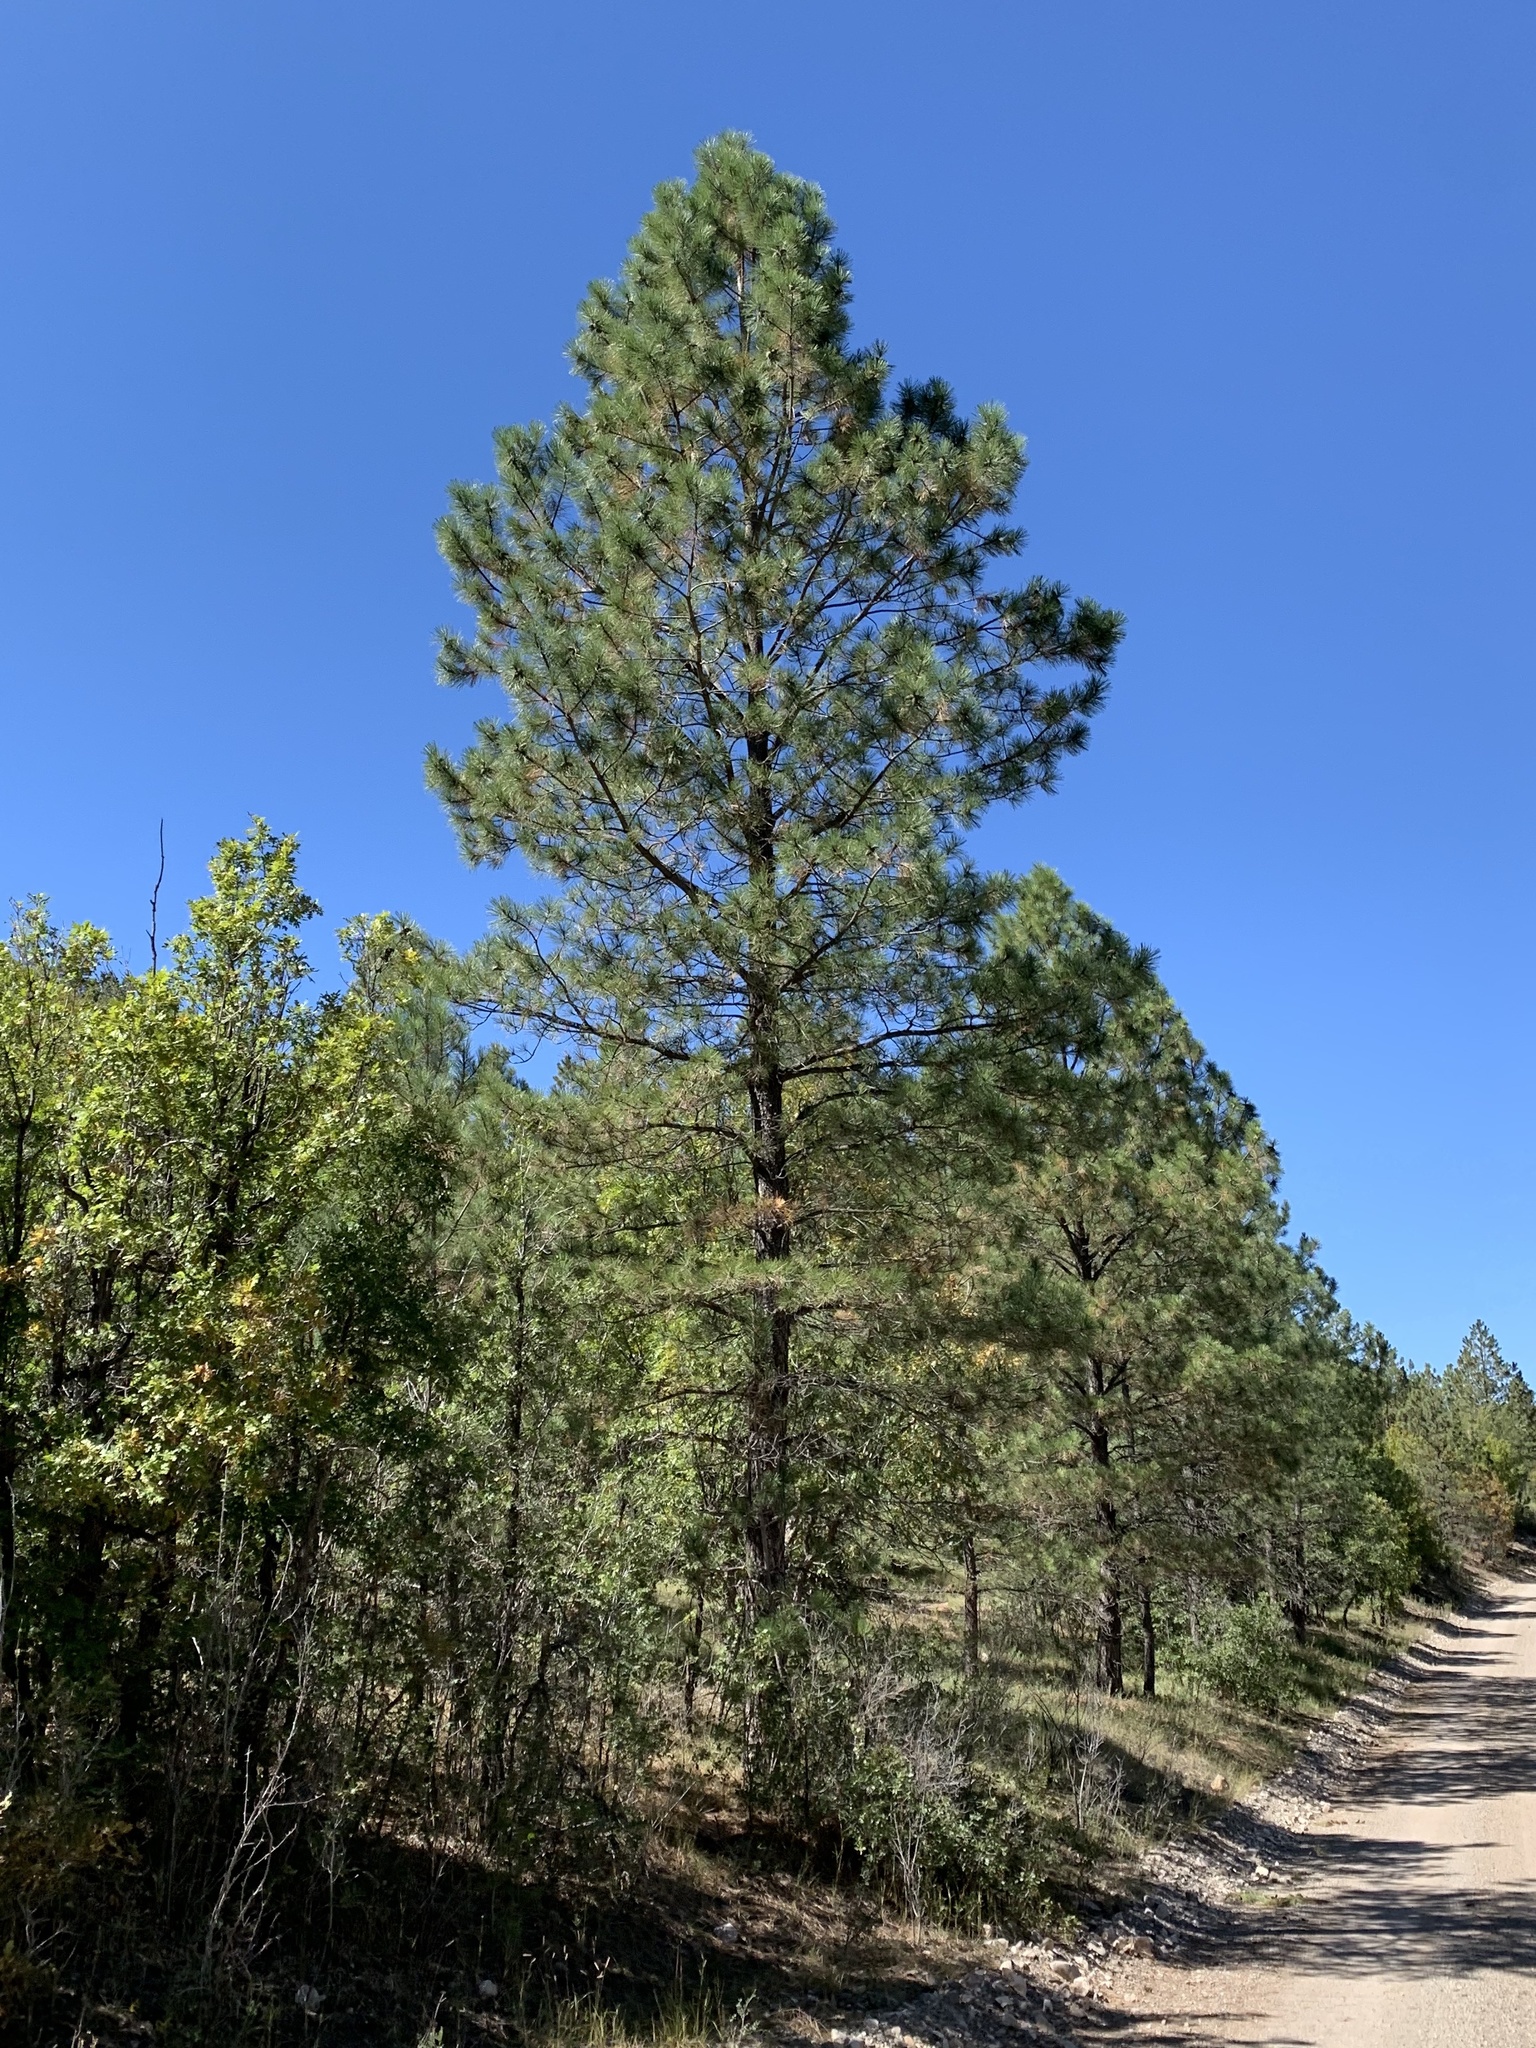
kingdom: Plantae
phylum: Tracheophyta
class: Pinopsida
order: Pinales
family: Pinaceae
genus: Pinus
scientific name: Pinus ponderosa
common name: Western yellow-pine
